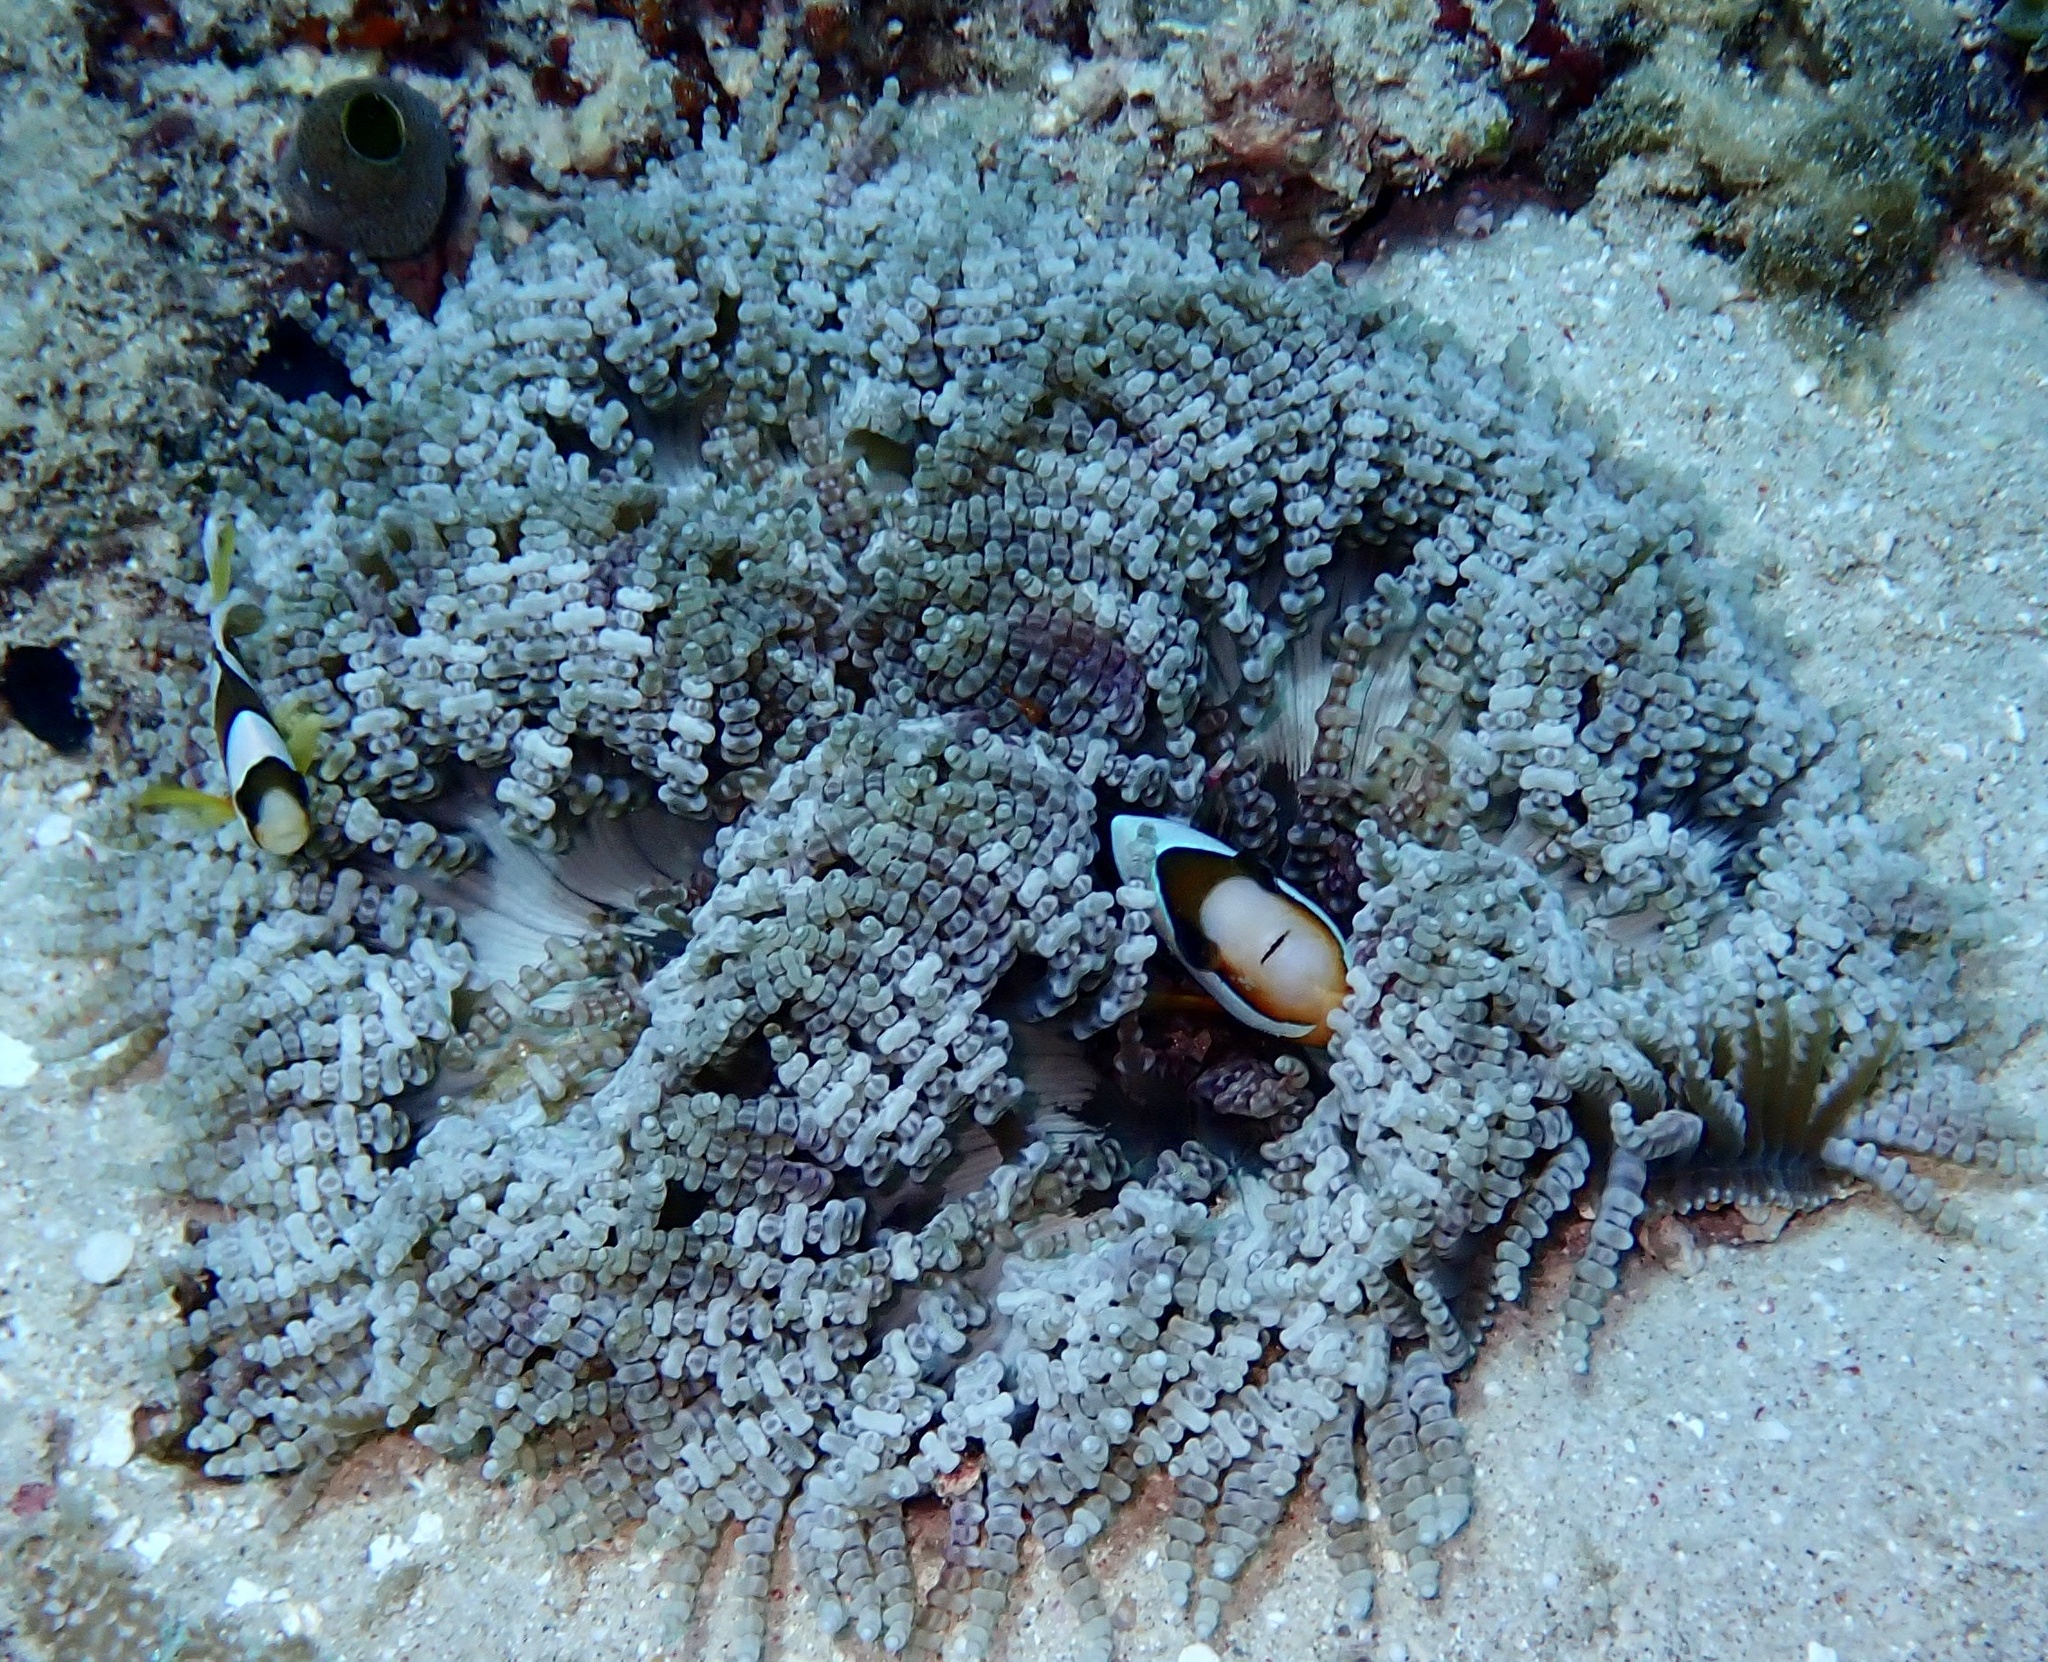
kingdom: Animalia
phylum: Chordata
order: Perciformes
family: Pomacentridae
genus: Amphiprion
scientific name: Amphiprion clarkii
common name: Clark's anemonefish
